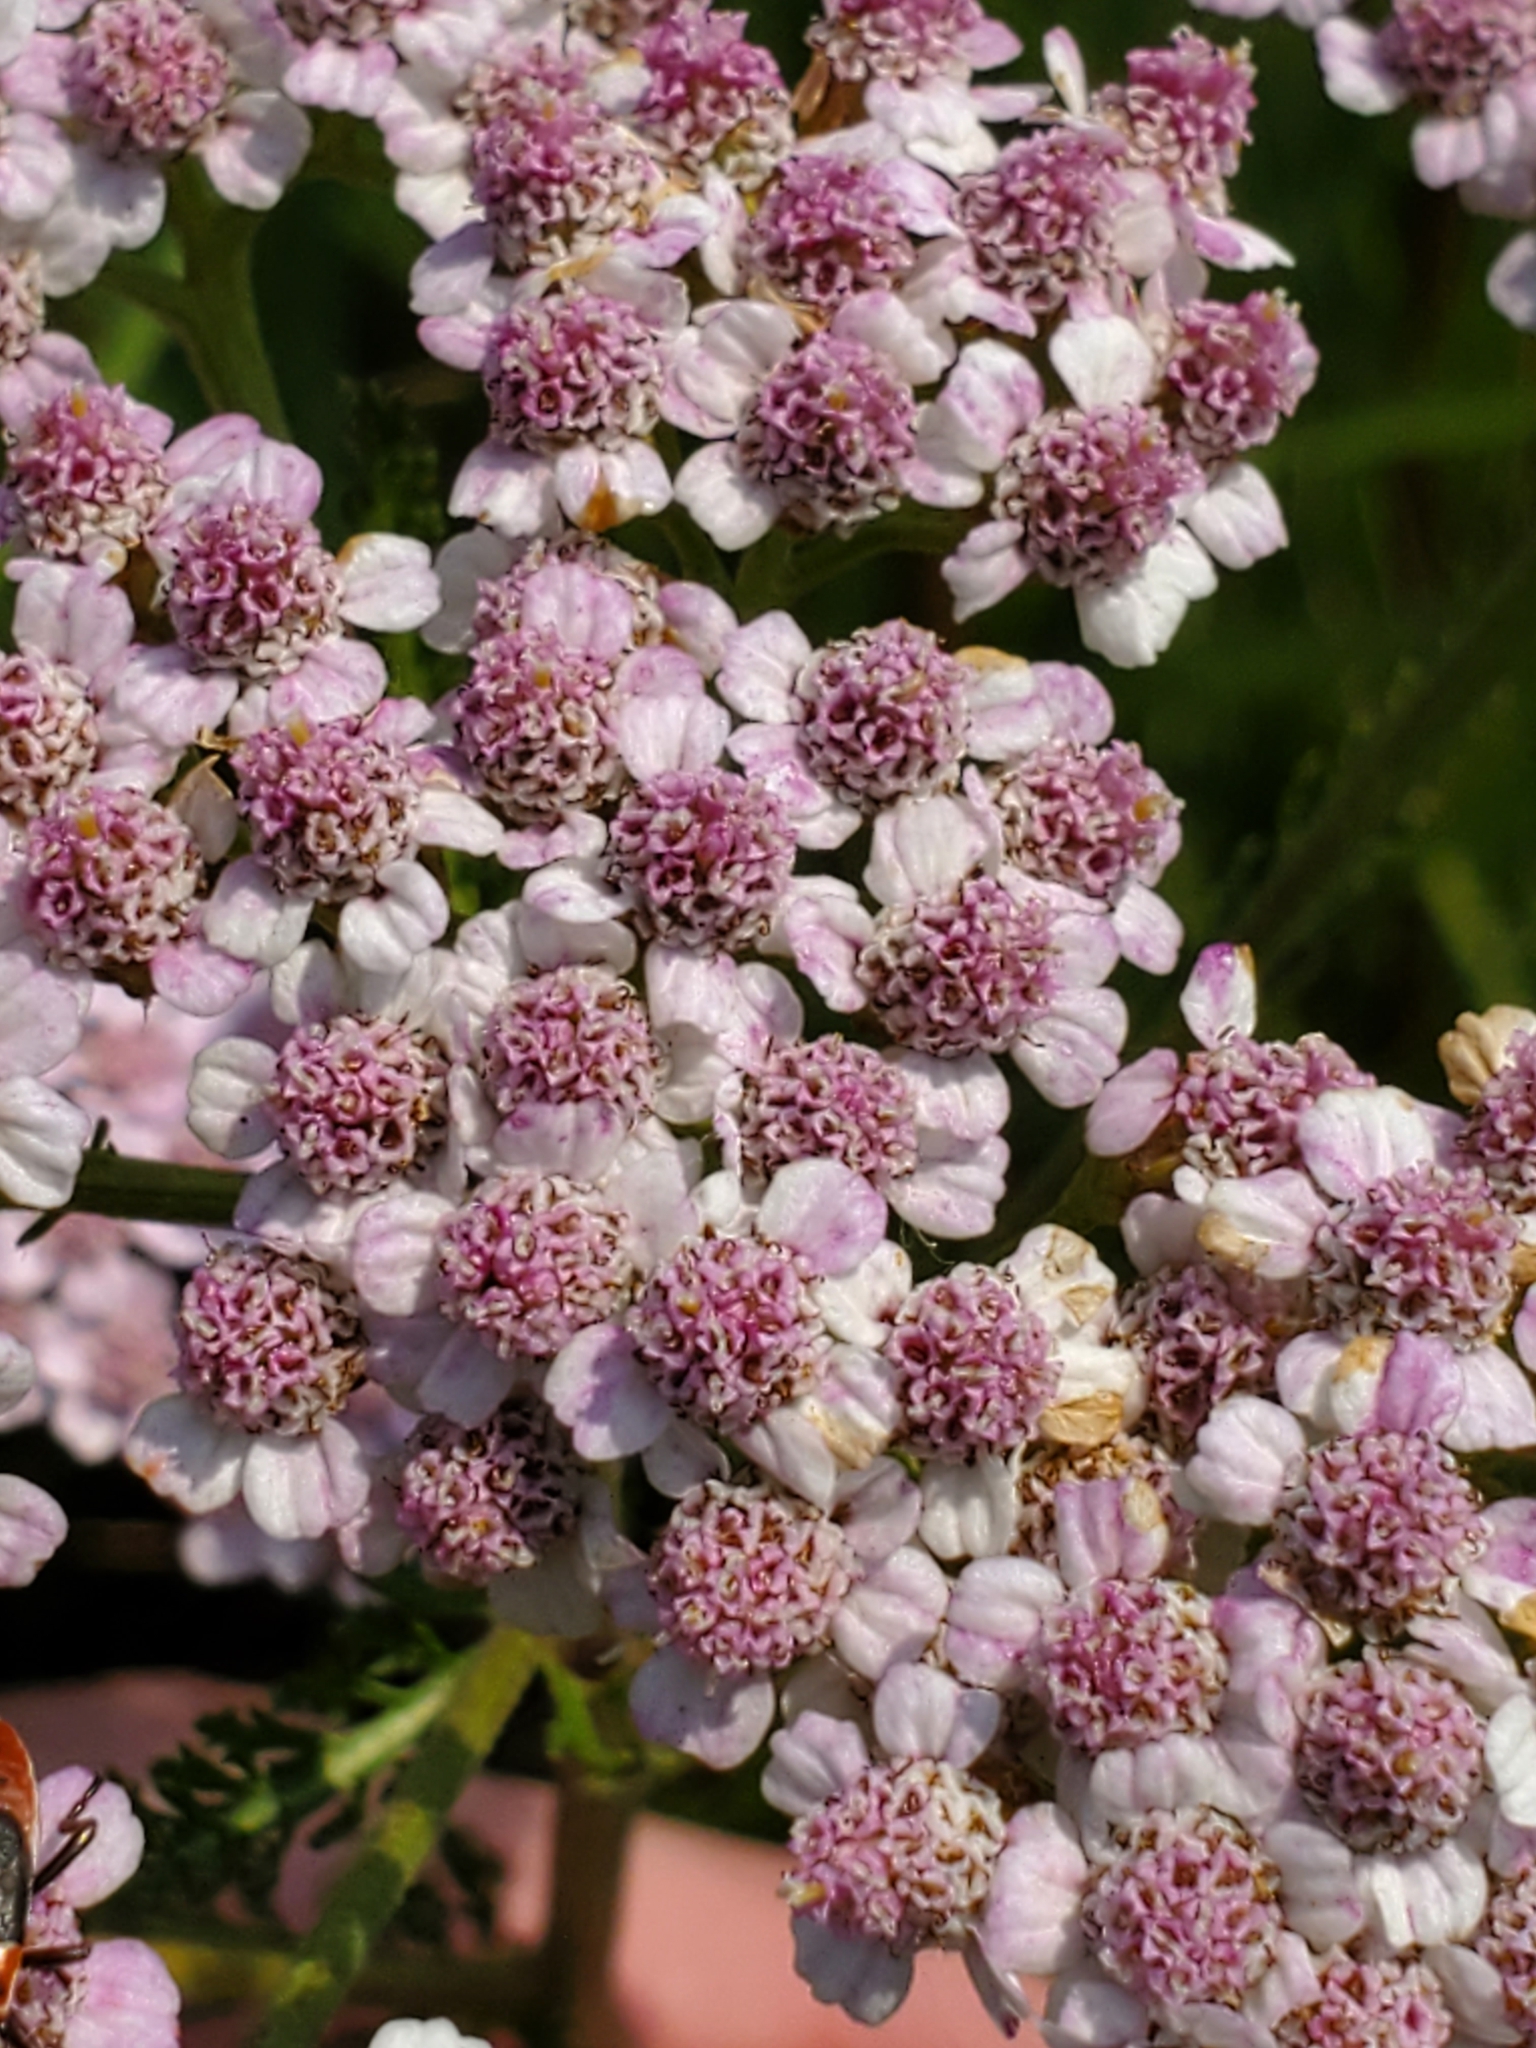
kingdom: Plantae
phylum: Tracheophyta
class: Magnoliopsida
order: Asterales
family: Asteraceae
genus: Achillea
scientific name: Achillea millefolium
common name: Yarrow
